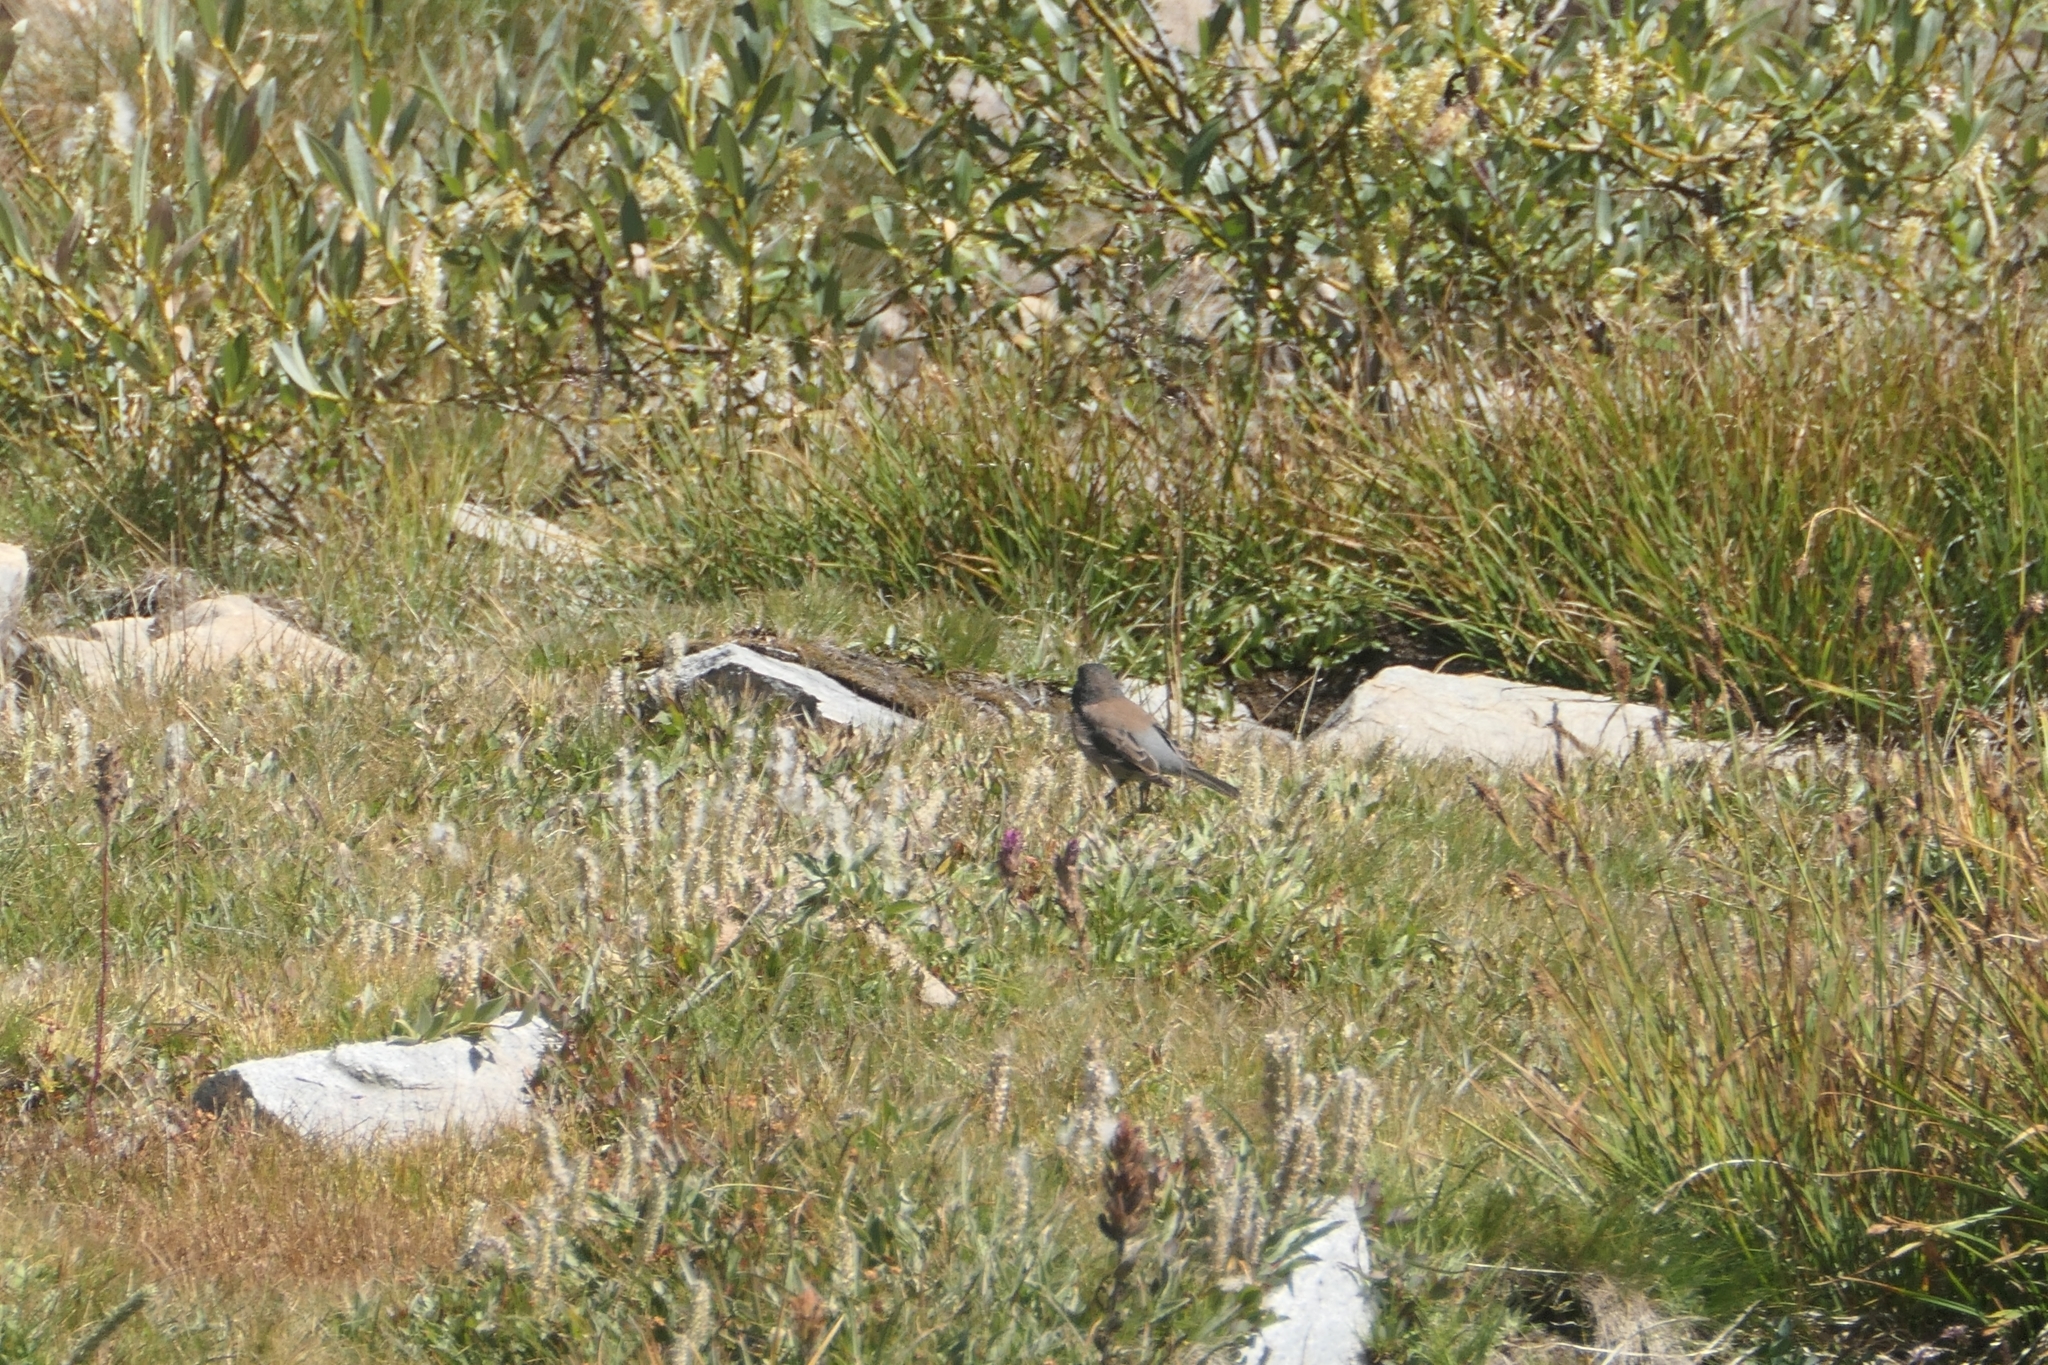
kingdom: Animalia
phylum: Chordata
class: Aves
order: Passeriformes
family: Passerellidae
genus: Junco
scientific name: Junco hyemalis
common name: Dark-eyed junco
